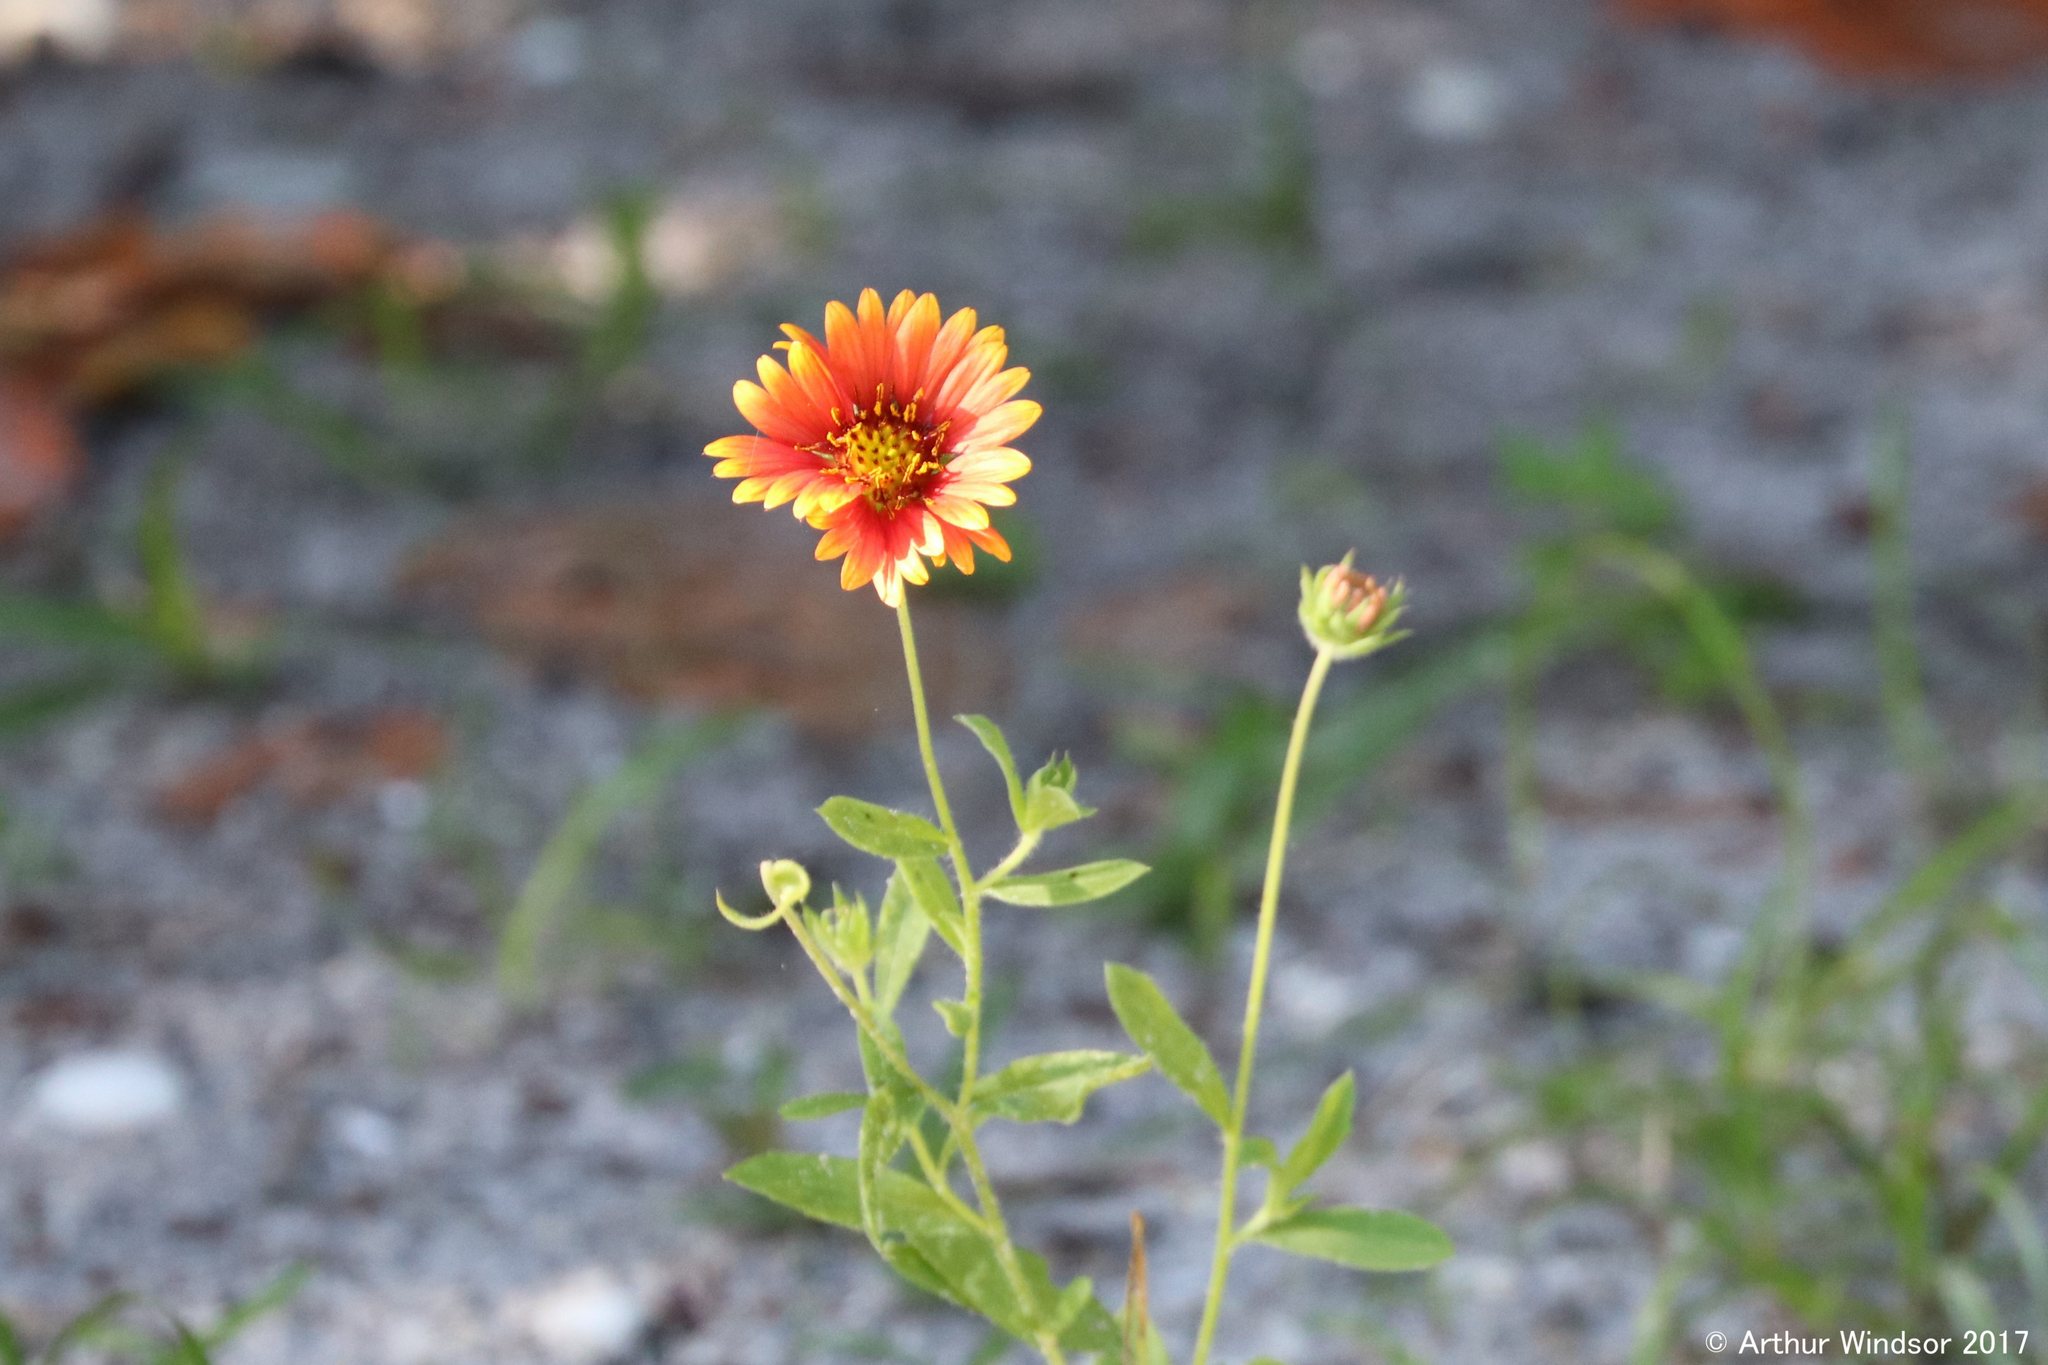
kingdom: Plantae
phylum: Tracheophyta
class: Magnoliopsida
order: Asterales
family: Asteraceae
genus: Gaillardia
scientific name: Gaillardia pulchella
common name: Firewheel
